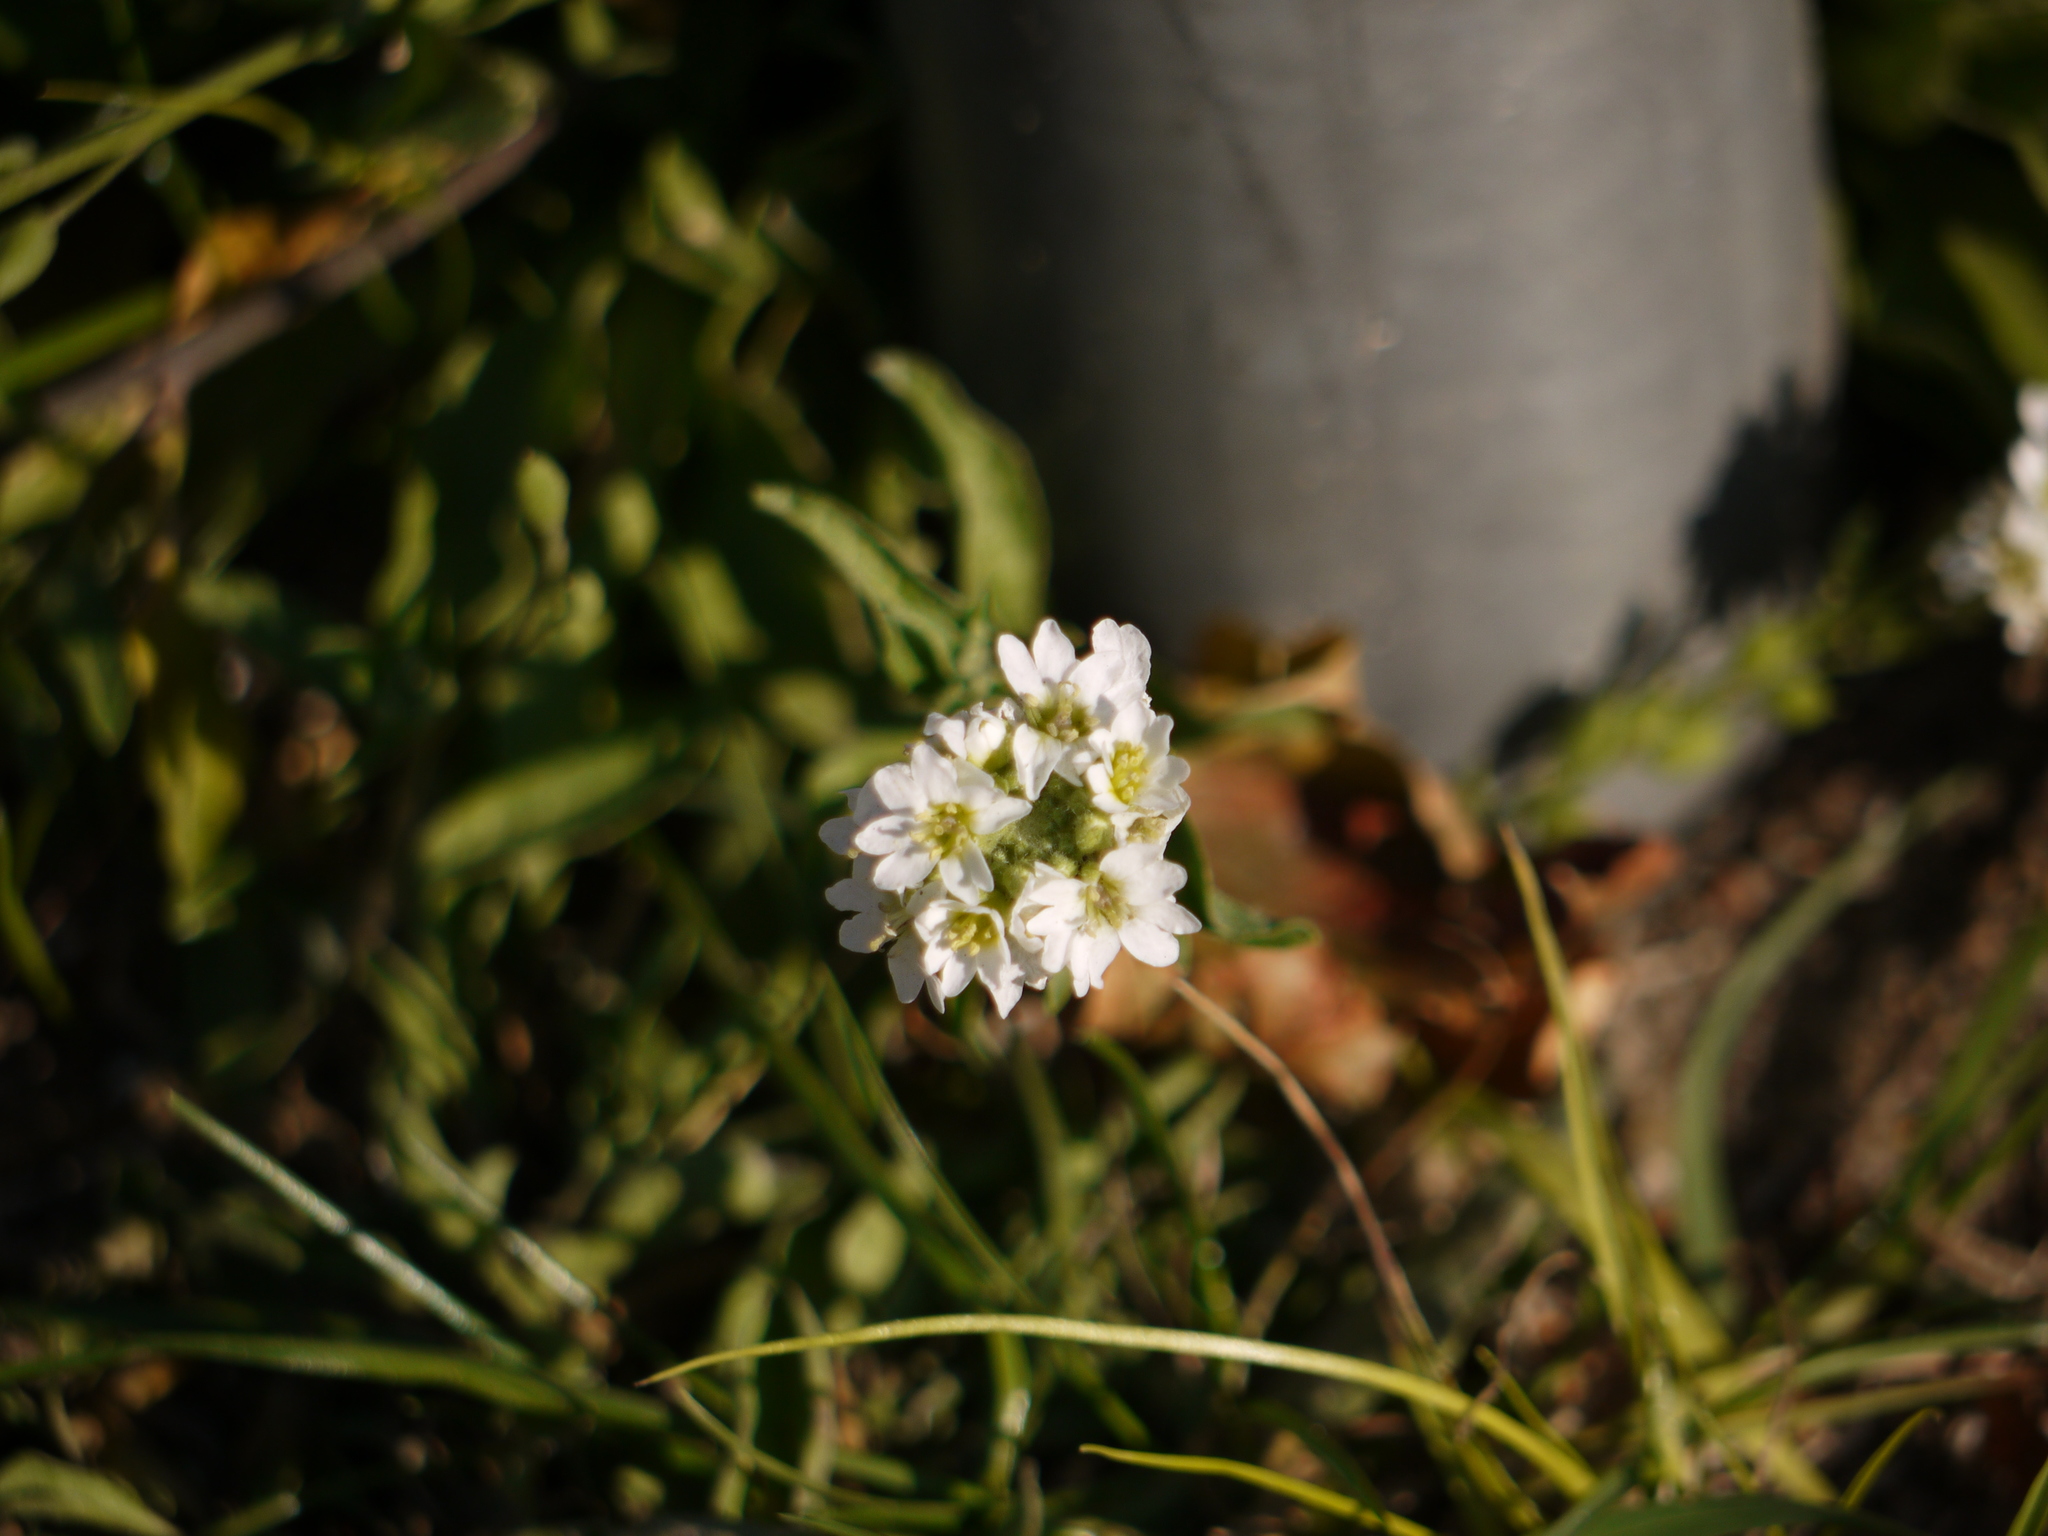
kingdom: Plantae
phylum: Tracheophyta
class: Magnoliopsida
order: Brassicales
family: Brassicaceae
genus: Berteroa
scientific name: Berteroa incana
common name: Hoary alison
